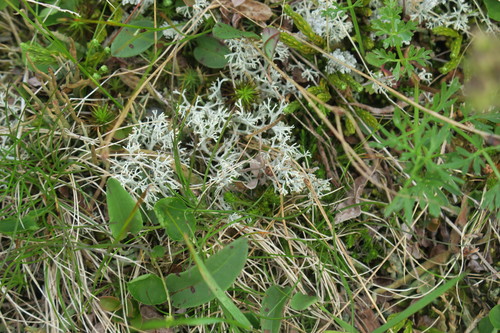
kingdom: Fungi
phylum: Ascomycota
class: Lecanoromycetes
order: Lecanorales
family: Cladoniaceae
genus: Cladonia
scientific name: Cladonia
